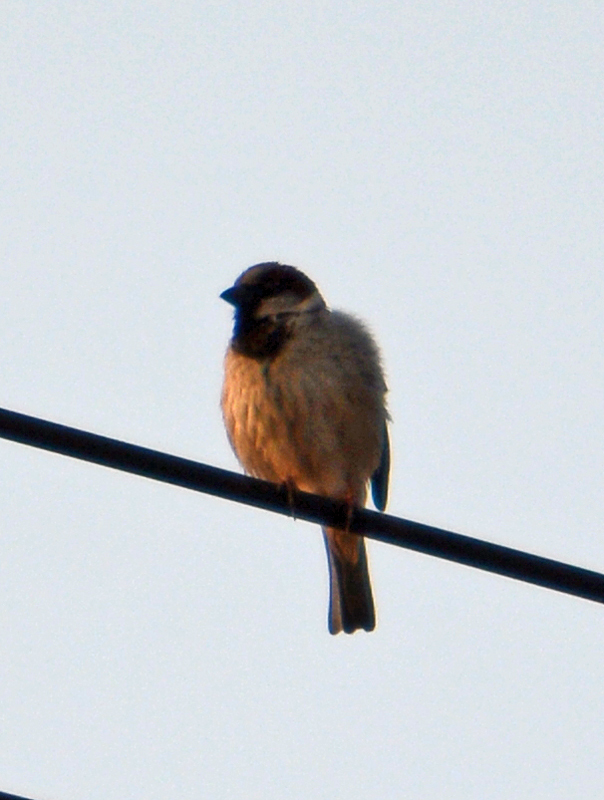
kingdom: Animalia
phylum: Chordata
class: Aves
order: Passeriformes
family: Passeridae
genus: Passer
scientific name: Passer domesticus
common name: House sparrow
